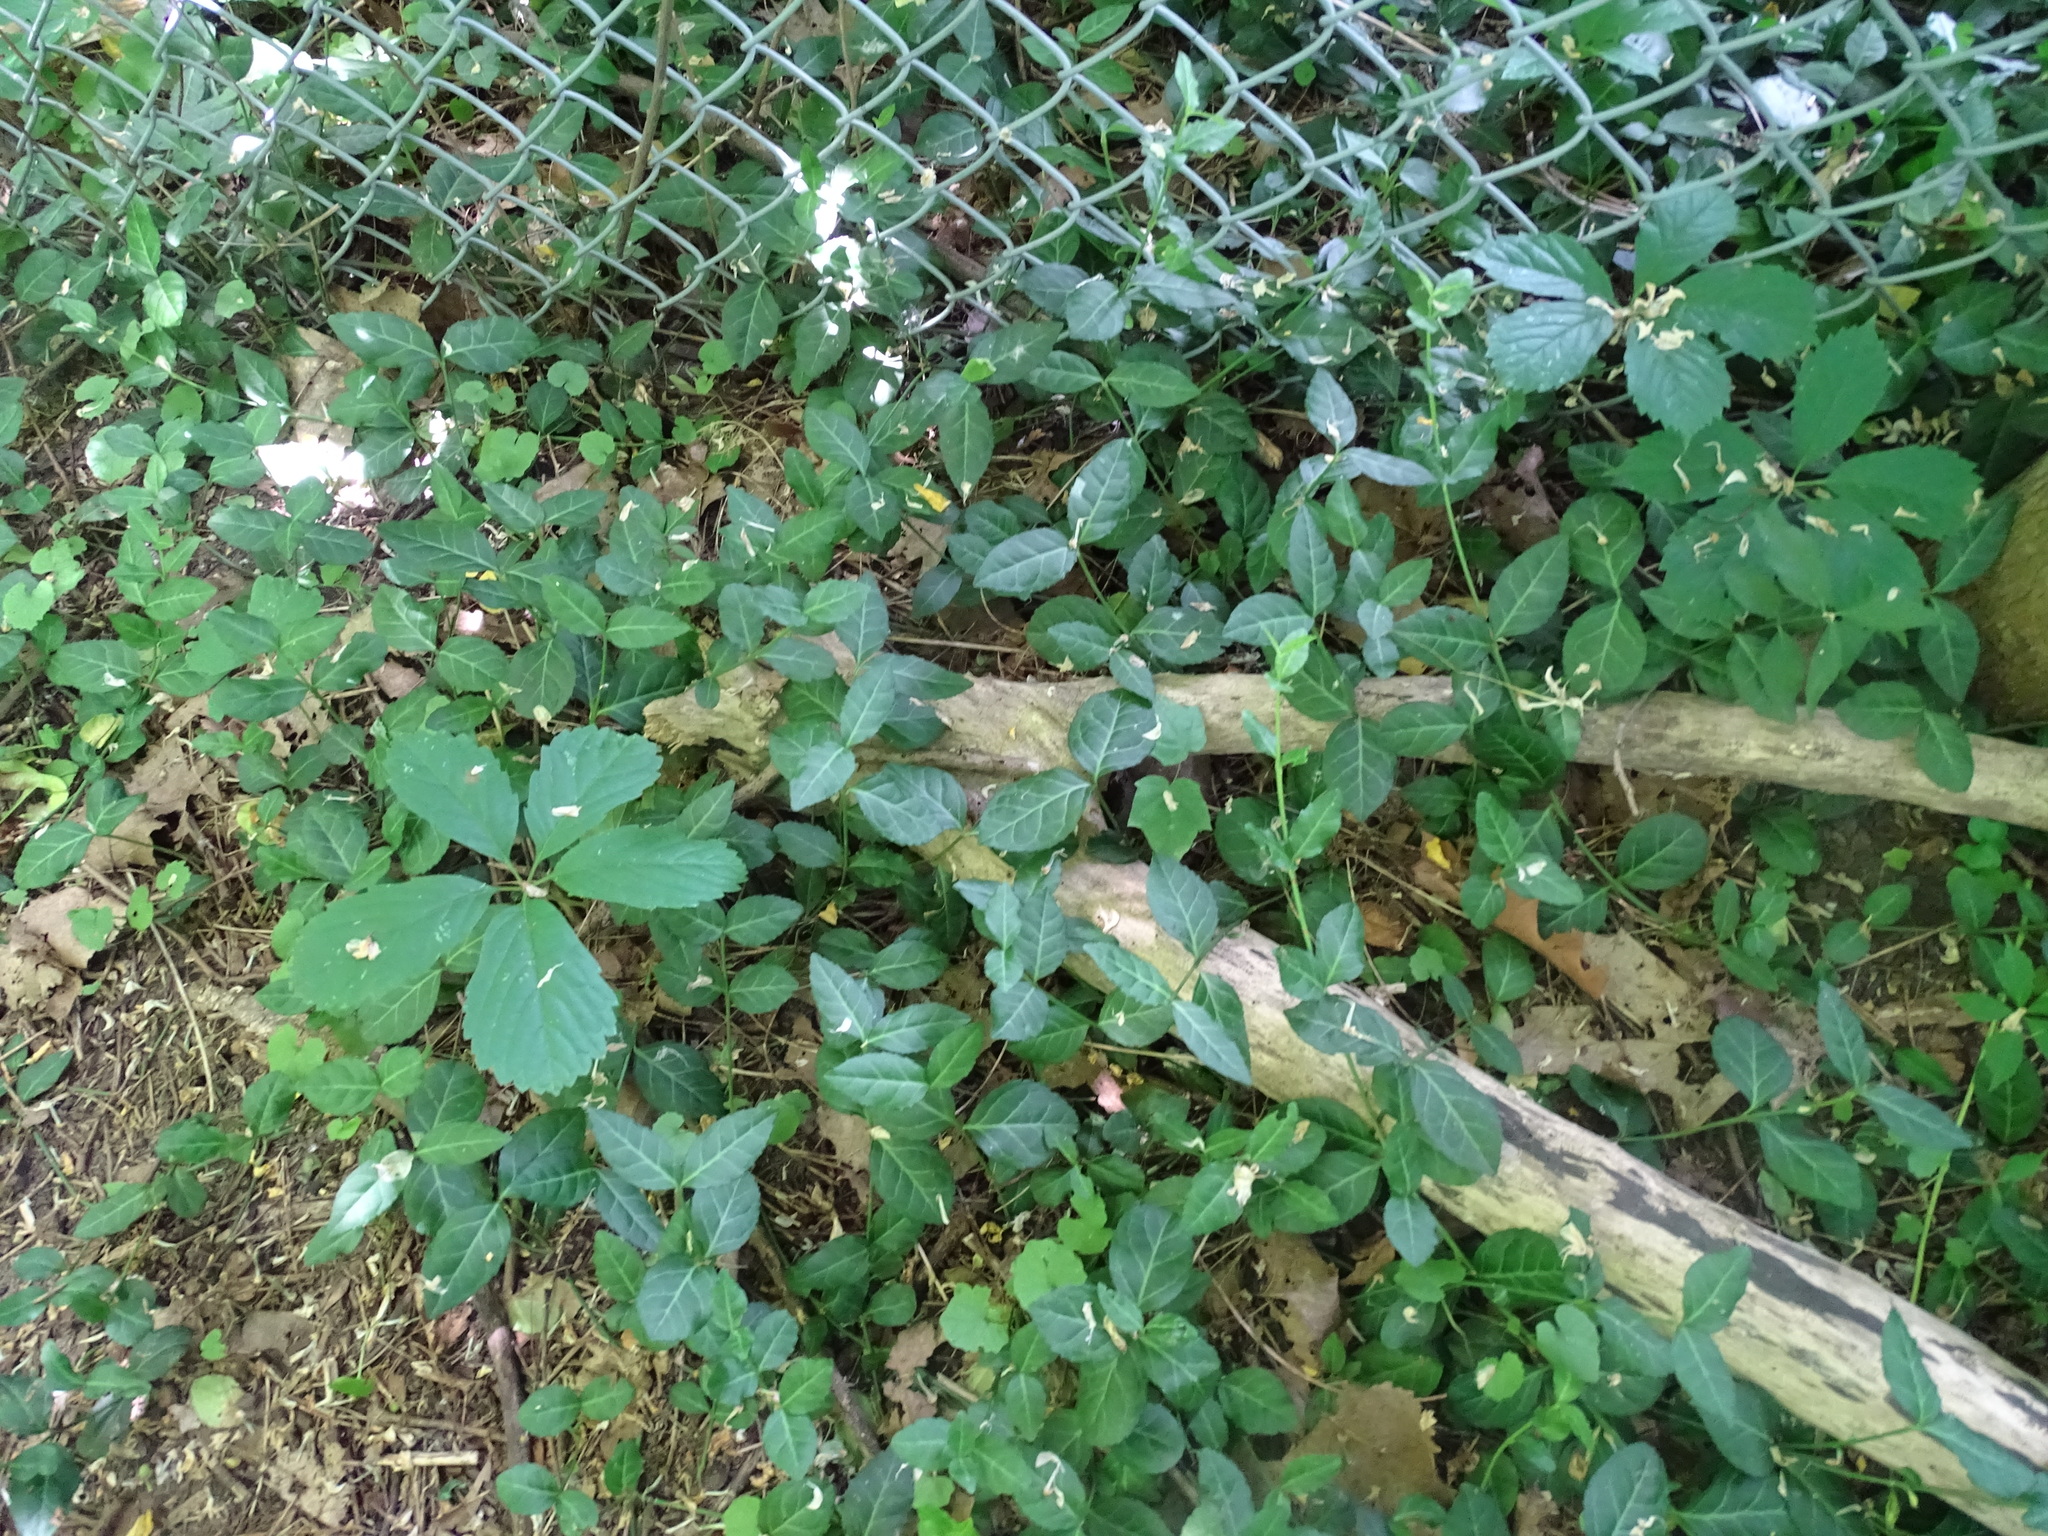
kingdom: Plantae
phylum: Tracheophyta
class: Magnoliopsida
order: Celastrales
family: Celastraceae
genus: Euonymus
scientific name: Euonymus fortunei
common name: Climbing euonymus
